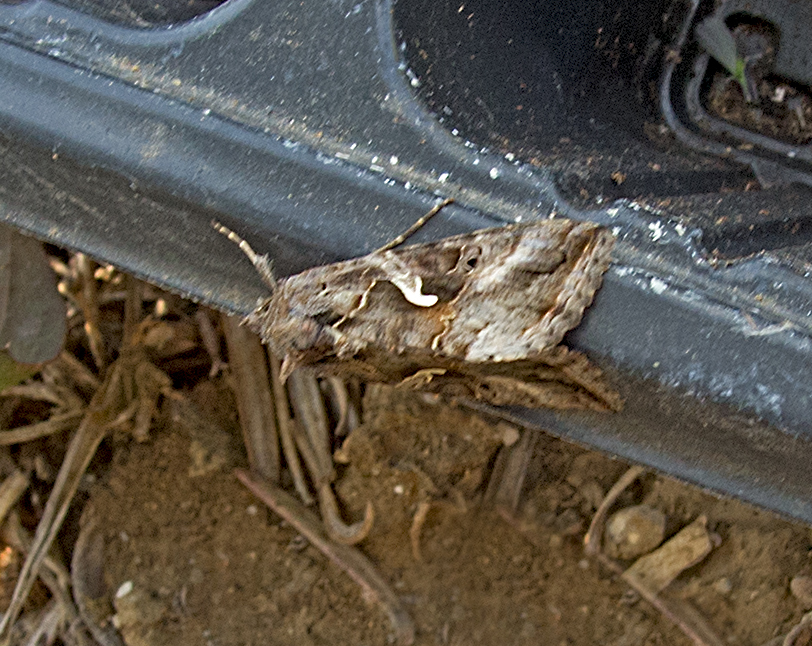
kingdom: Animalia
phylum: Arthropoda
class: Insecta
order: Lepidoptera
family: Noctuidae
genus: Autographa
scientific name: Autographa gamma
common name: Silver y
